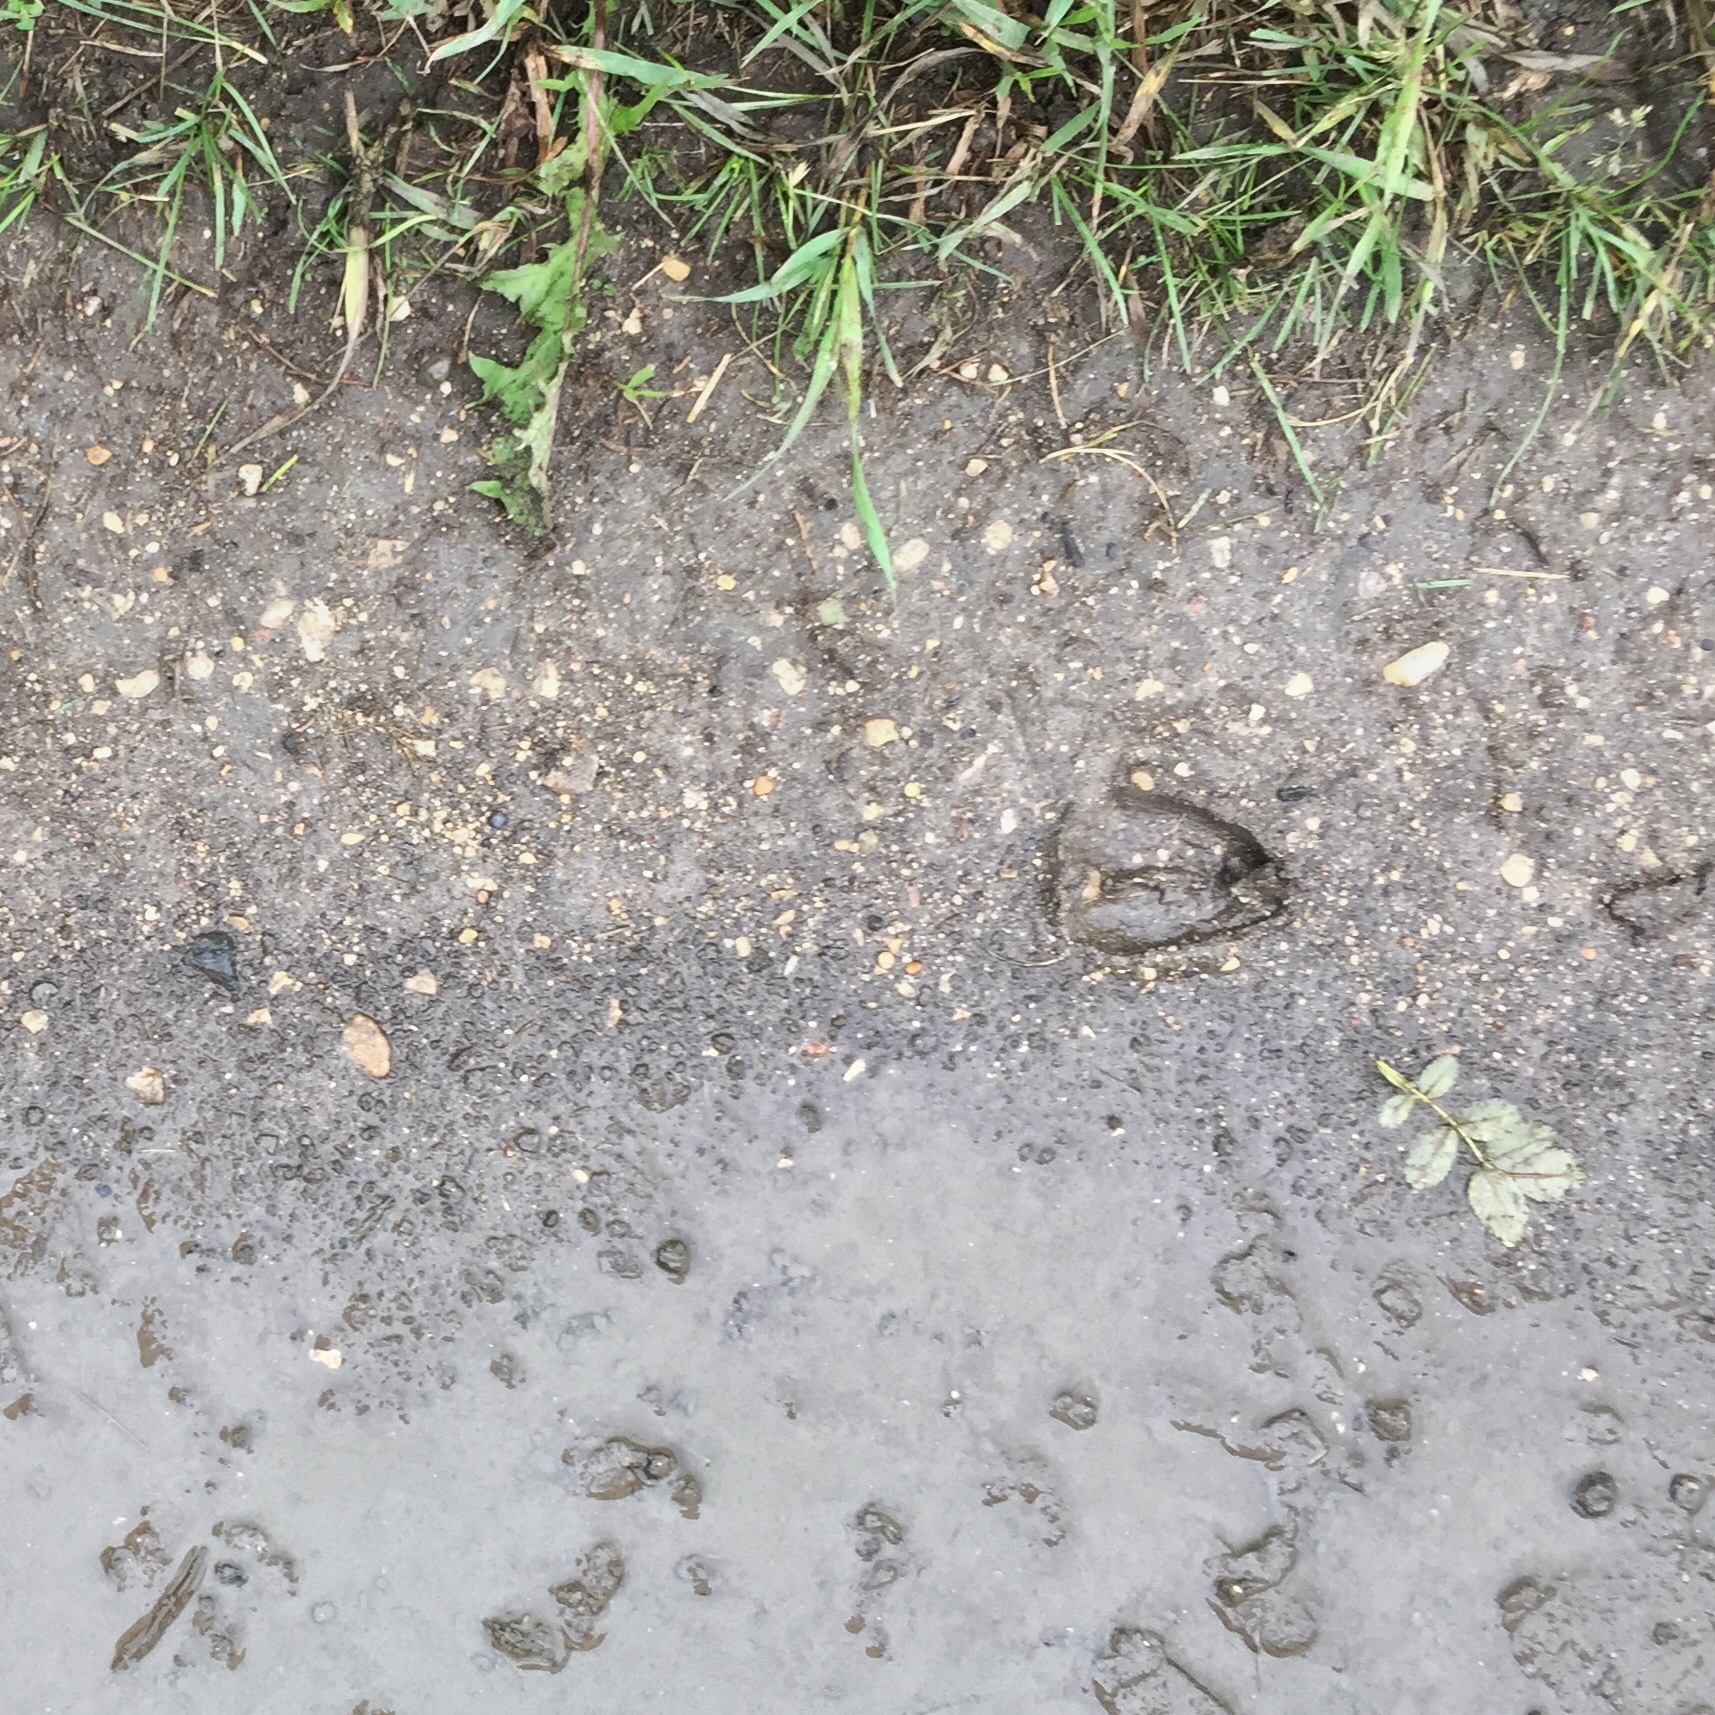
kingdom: Animalia
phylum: Chordata
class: Mammalia
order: Artiodactyla
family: Cervidae
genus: Odocoileus
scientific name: Odocoileus virginianus
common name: White-tailed deer
